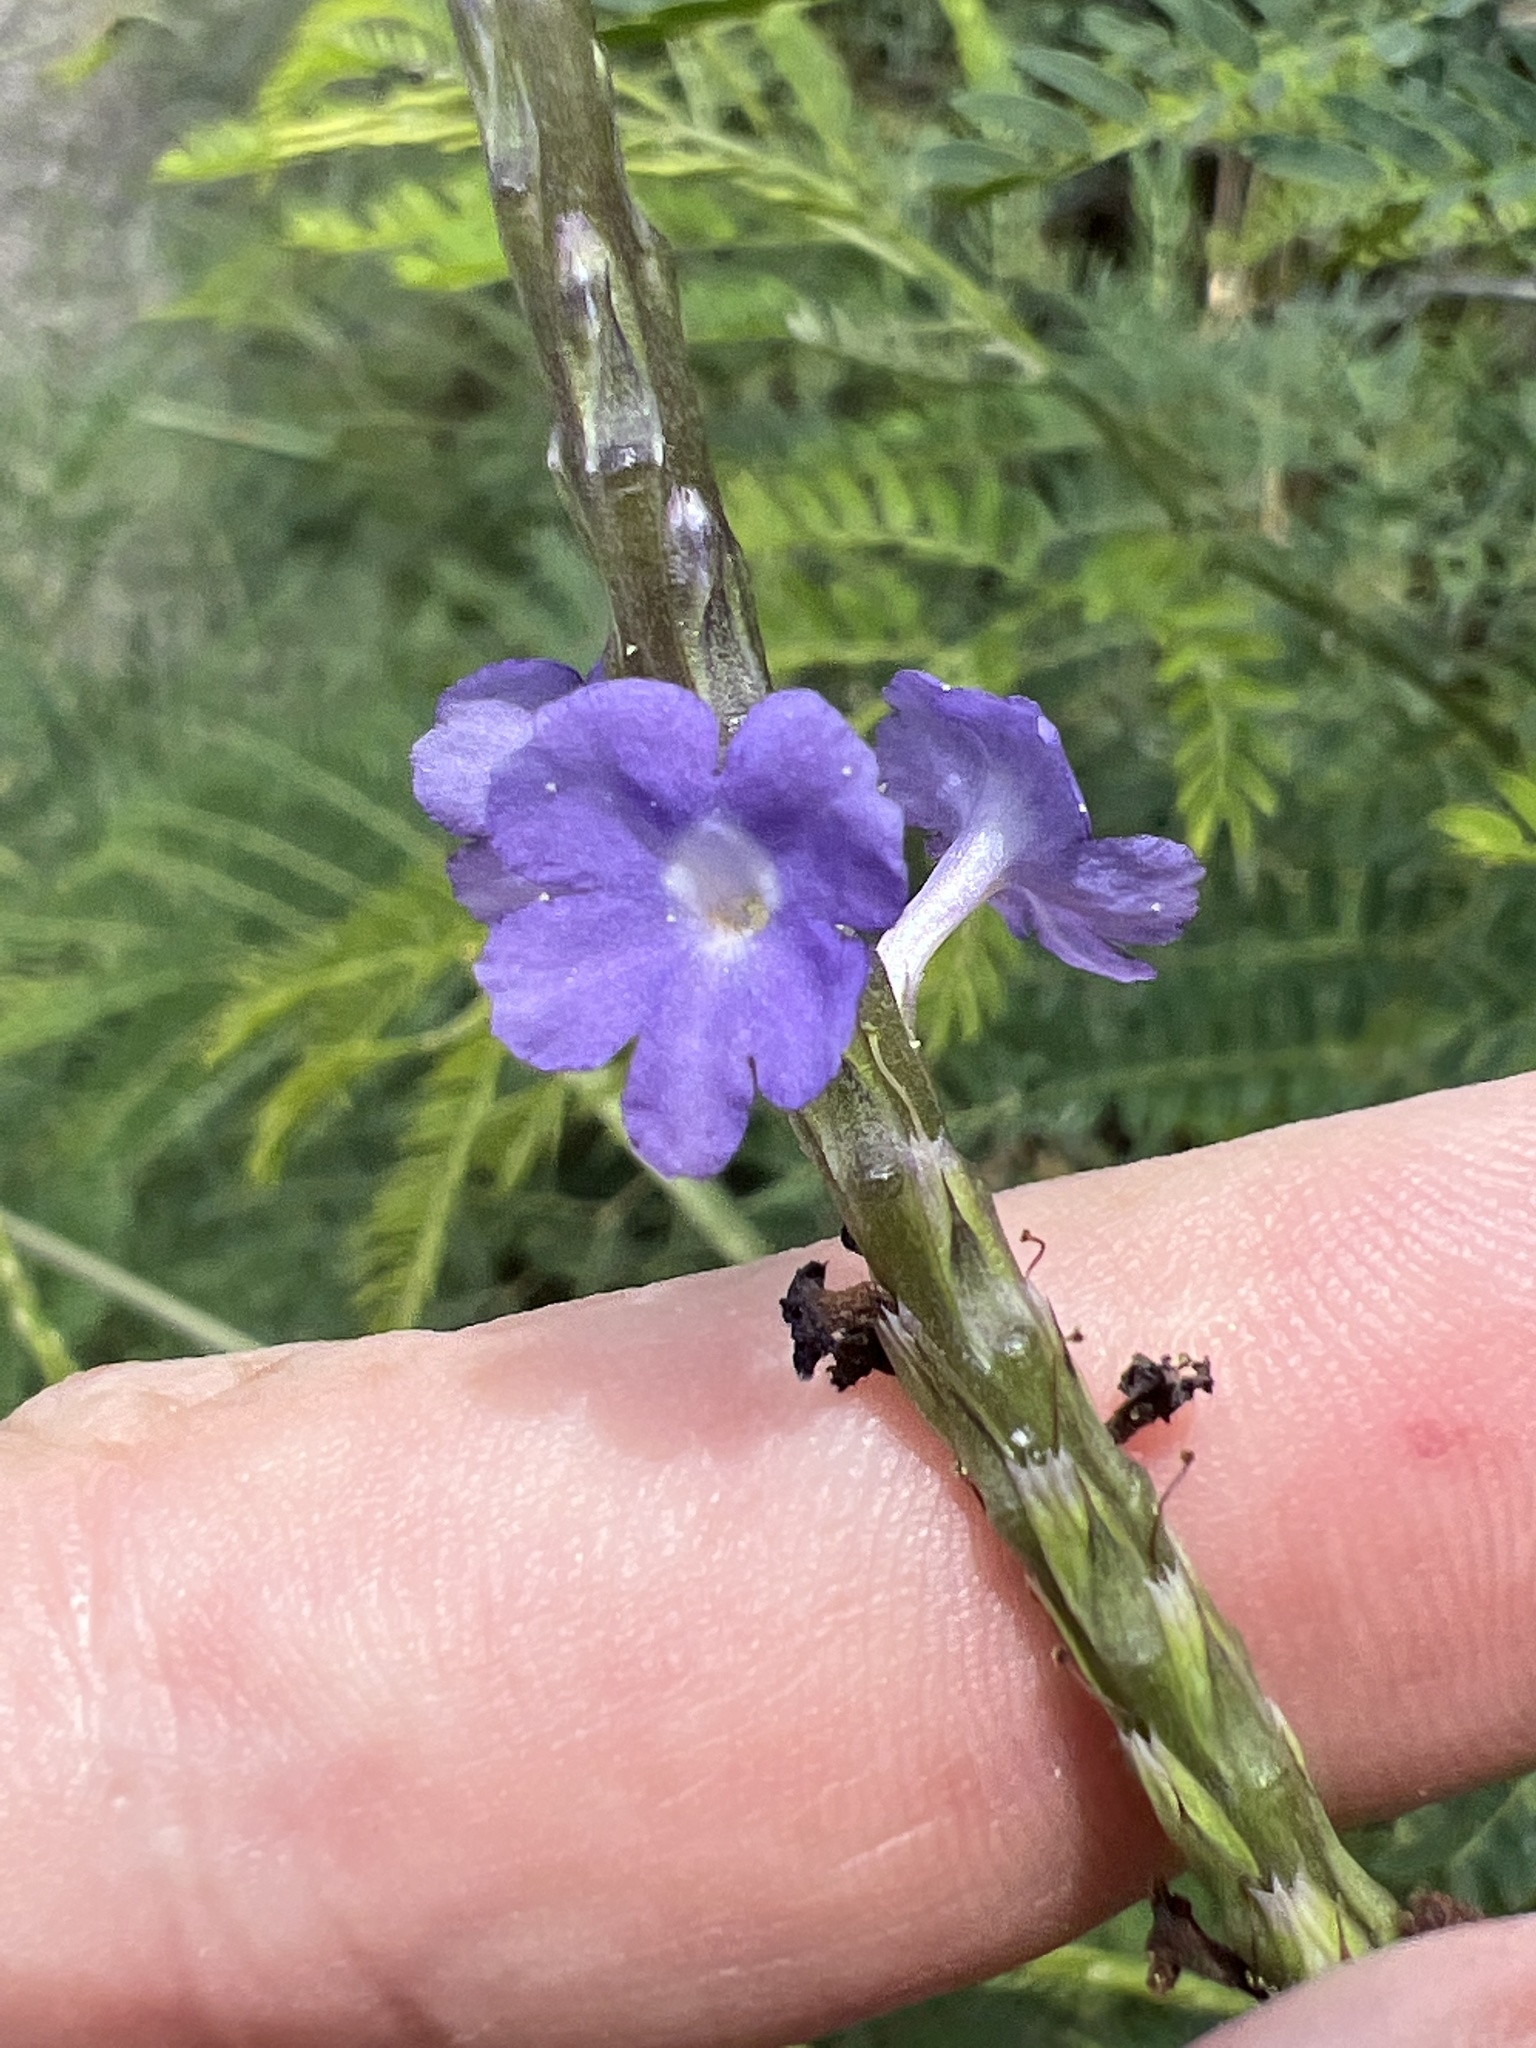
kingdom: Plantae
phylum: Tracheophyta
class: Magnoliopsida
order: Lamiales
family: Verbenaceae
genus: Stachytarpheta
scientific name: Stachytarpheta jamaicensis
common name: Light-blue snakeweed
